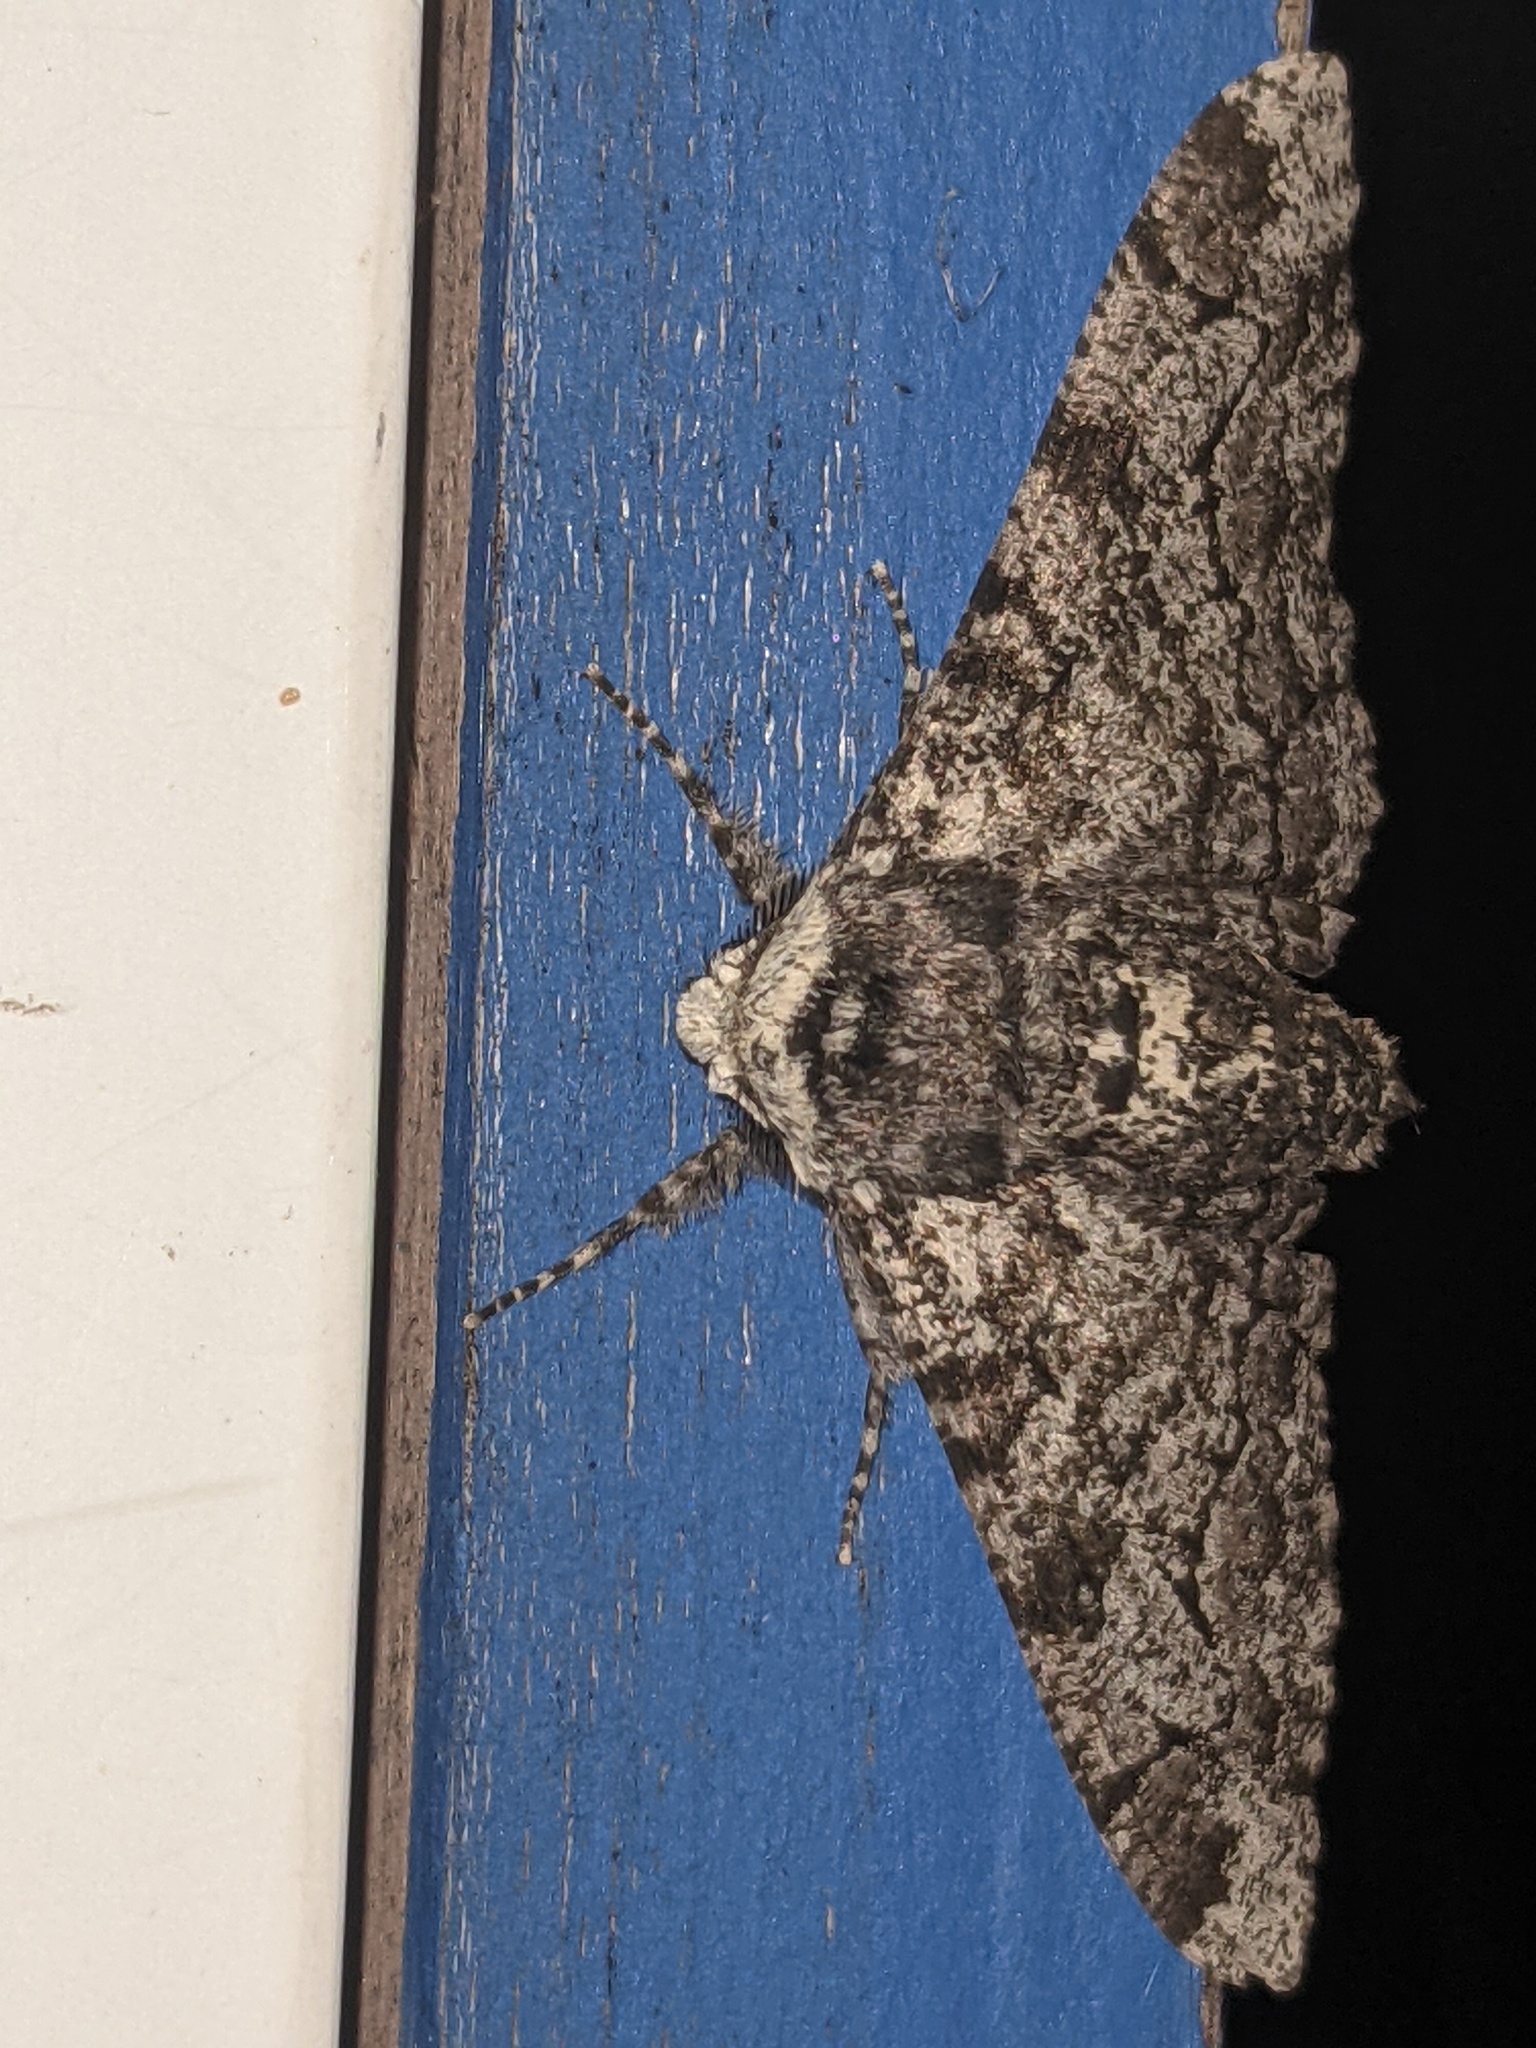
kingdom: Animalia
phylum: Arthropoda
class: Insecta
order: Lepidoptera
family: Geometridae
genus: Biston
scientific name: Biston betularia
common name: Peppered moth
